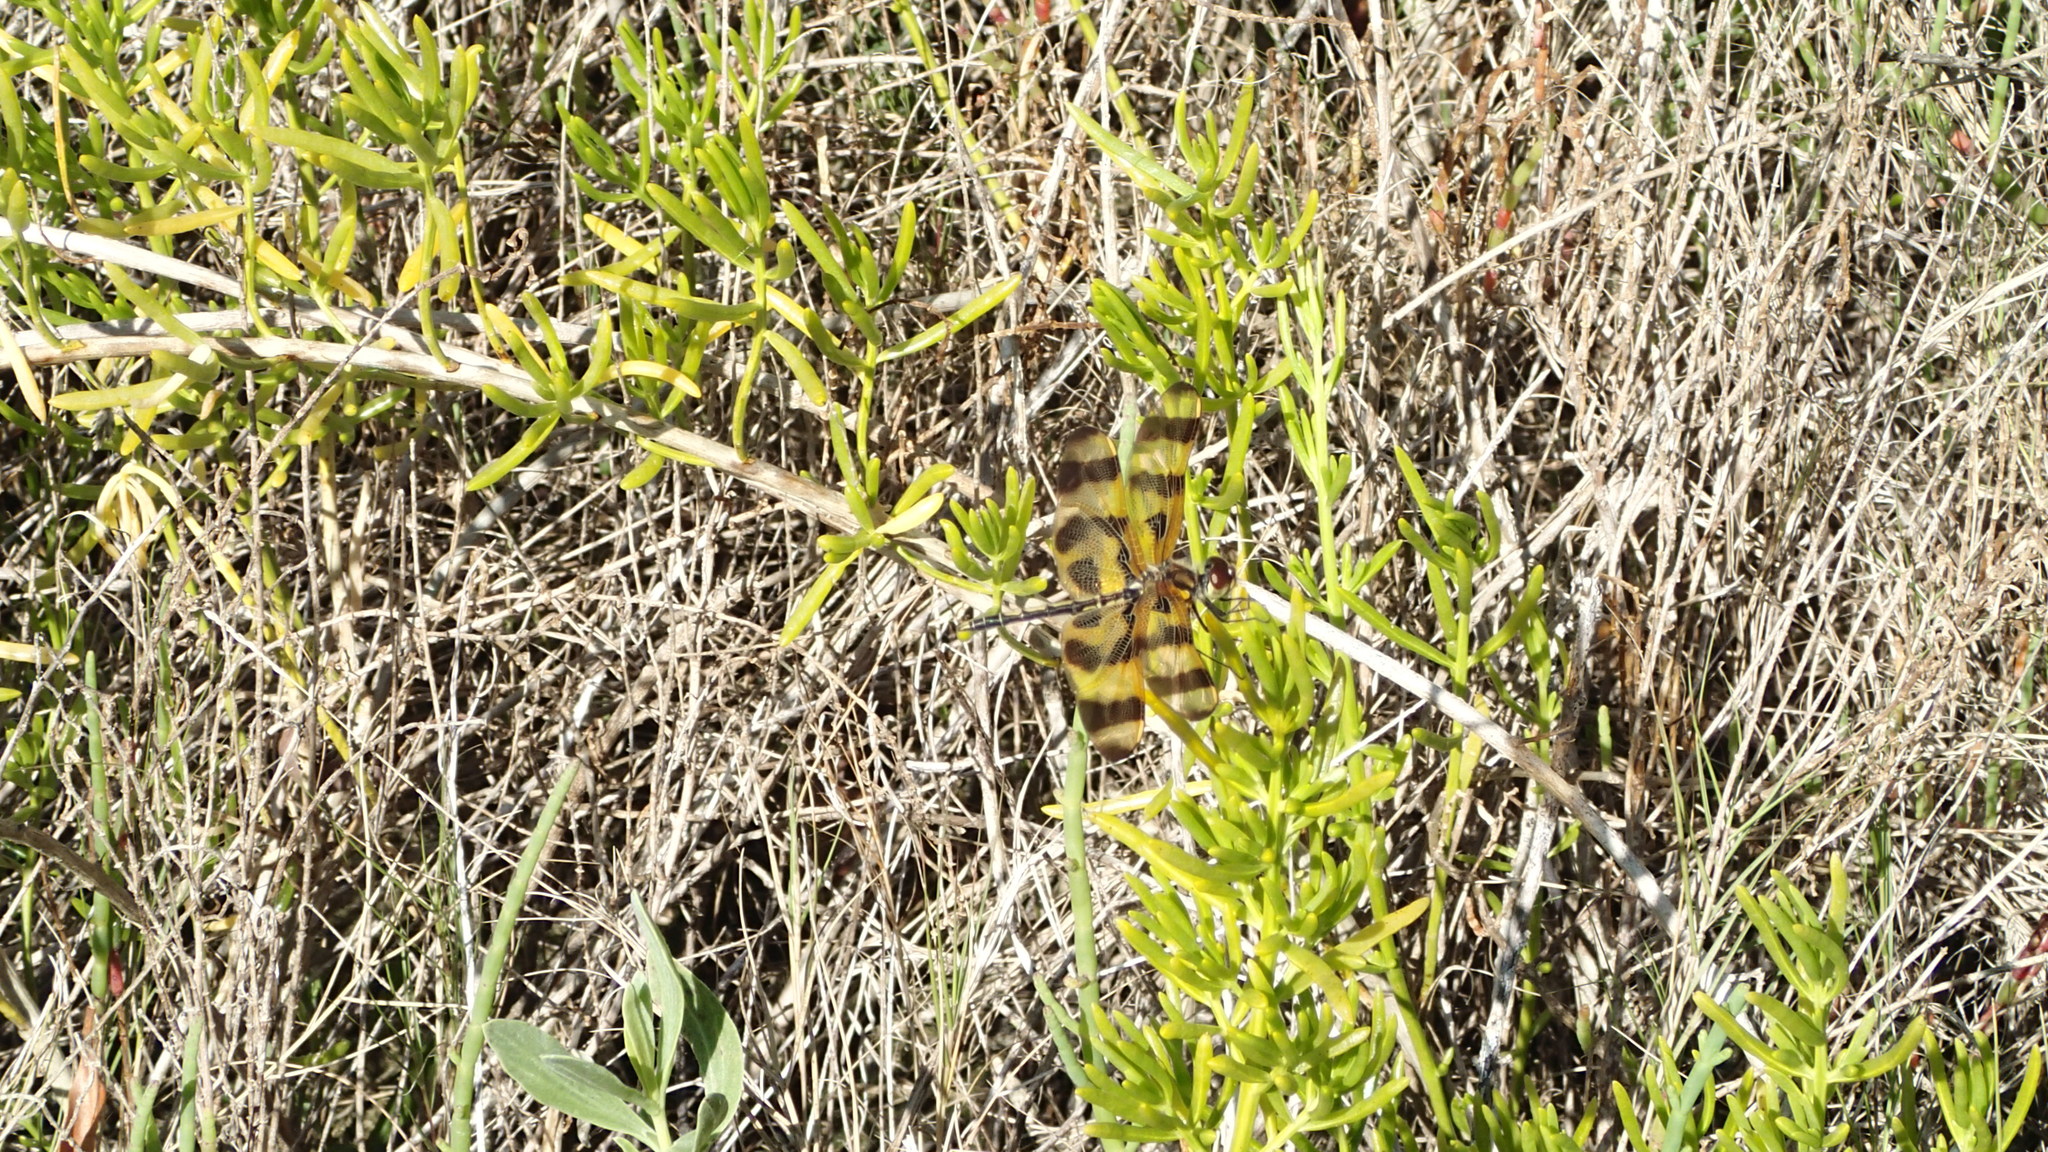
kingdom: Animalia
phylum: Arthropoda
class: Insecta
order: Odonata
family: Libellulidae
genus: Celithemis
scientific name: Celithemis eponina
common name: Halloween pennant
